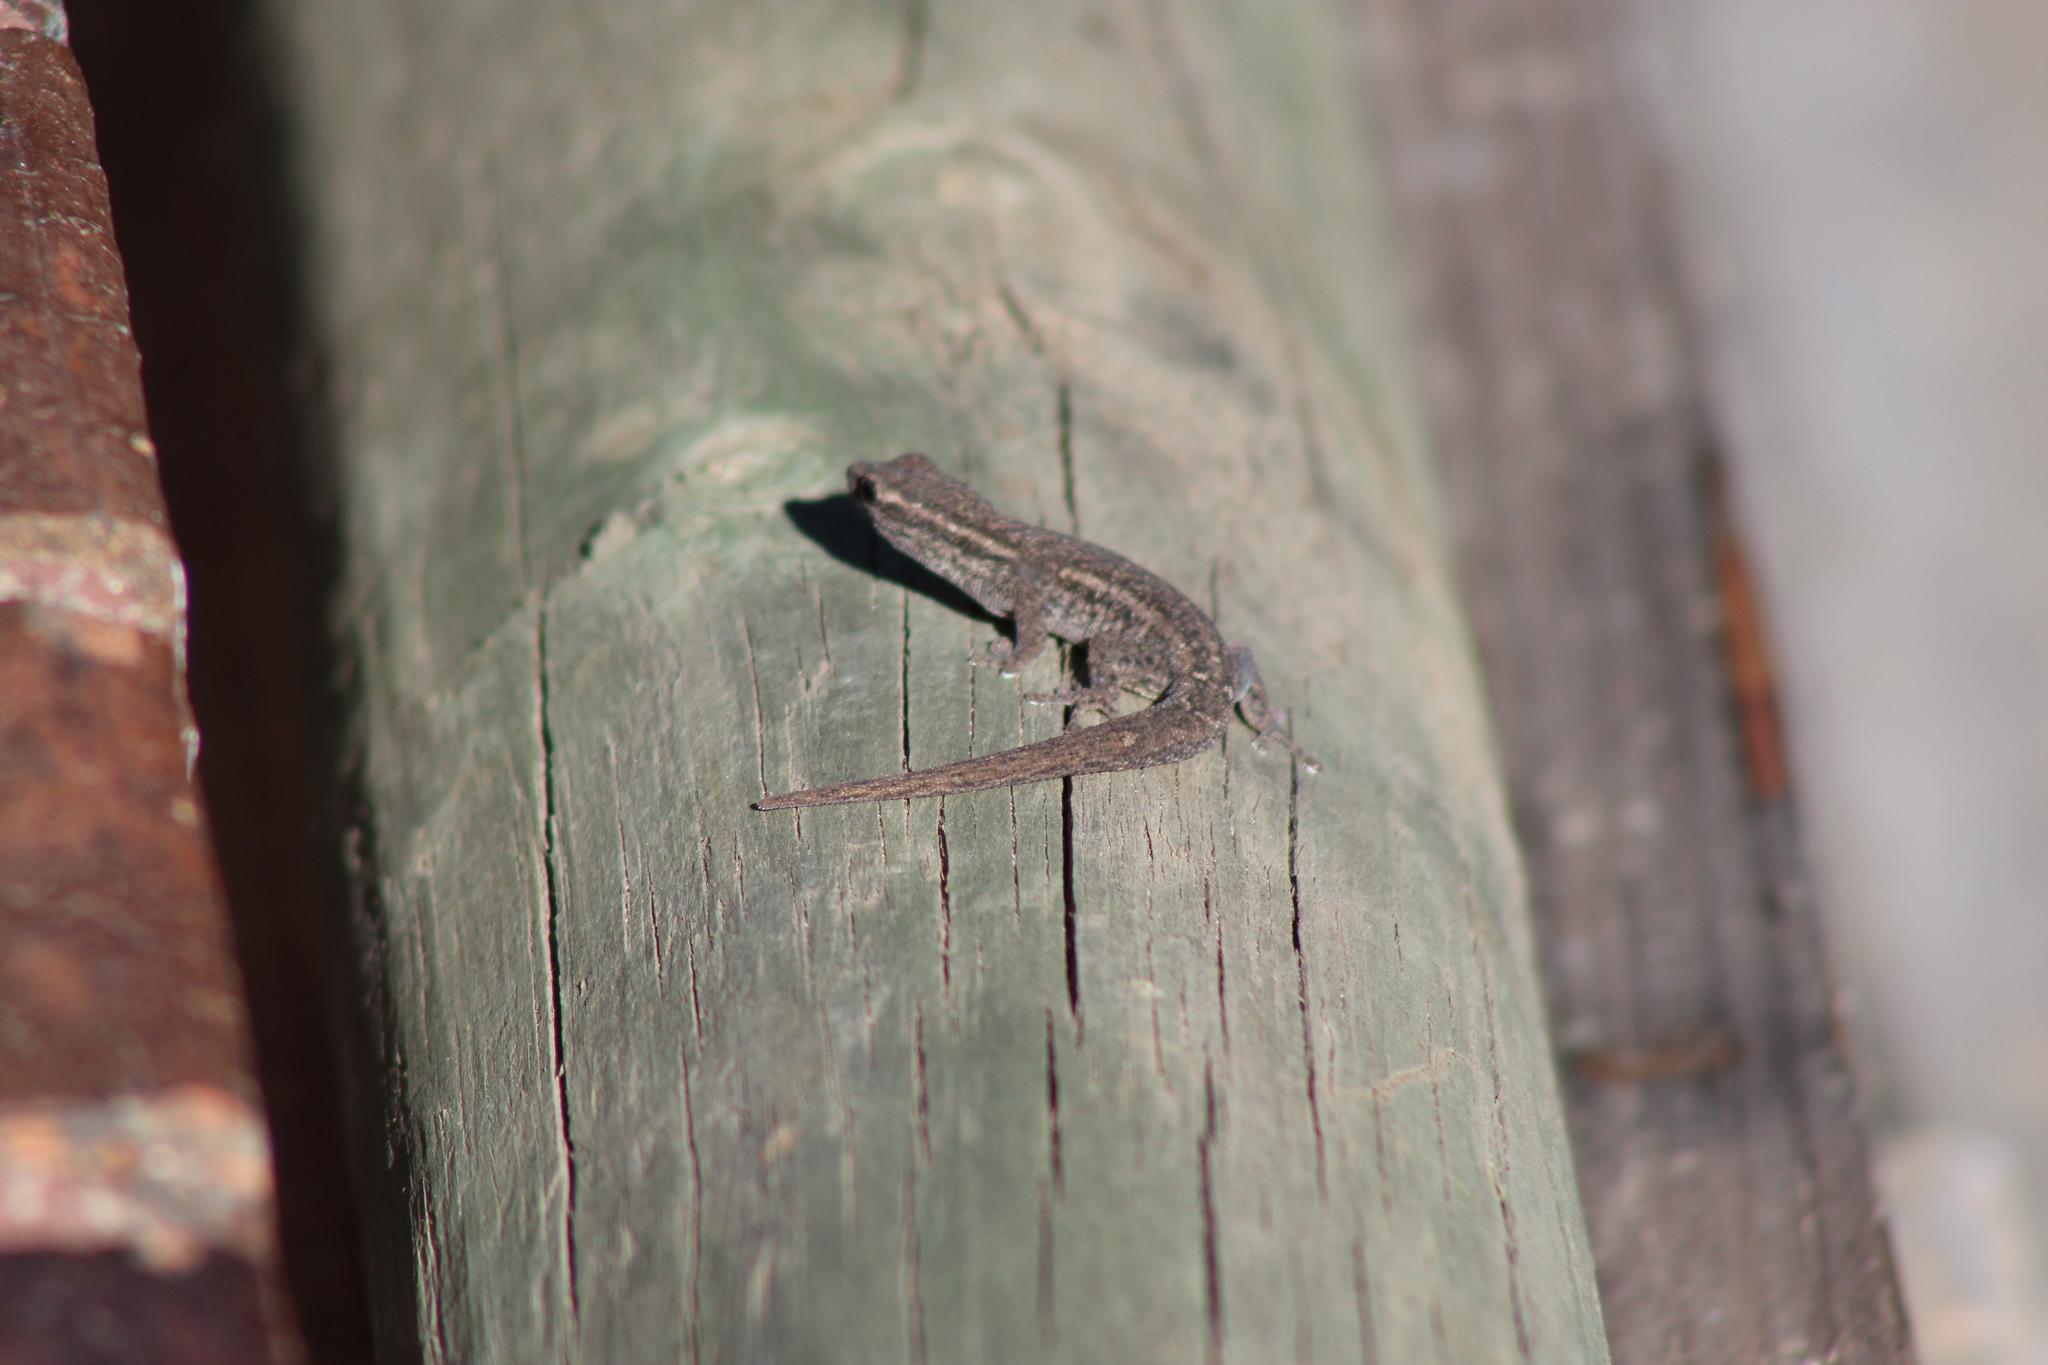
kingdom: Animalia
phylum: Chordata
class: Squamata
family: Gekkonidae
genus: Lygodactylus
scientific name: Lygodactylus capensis
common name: Cape dwarf gecko
